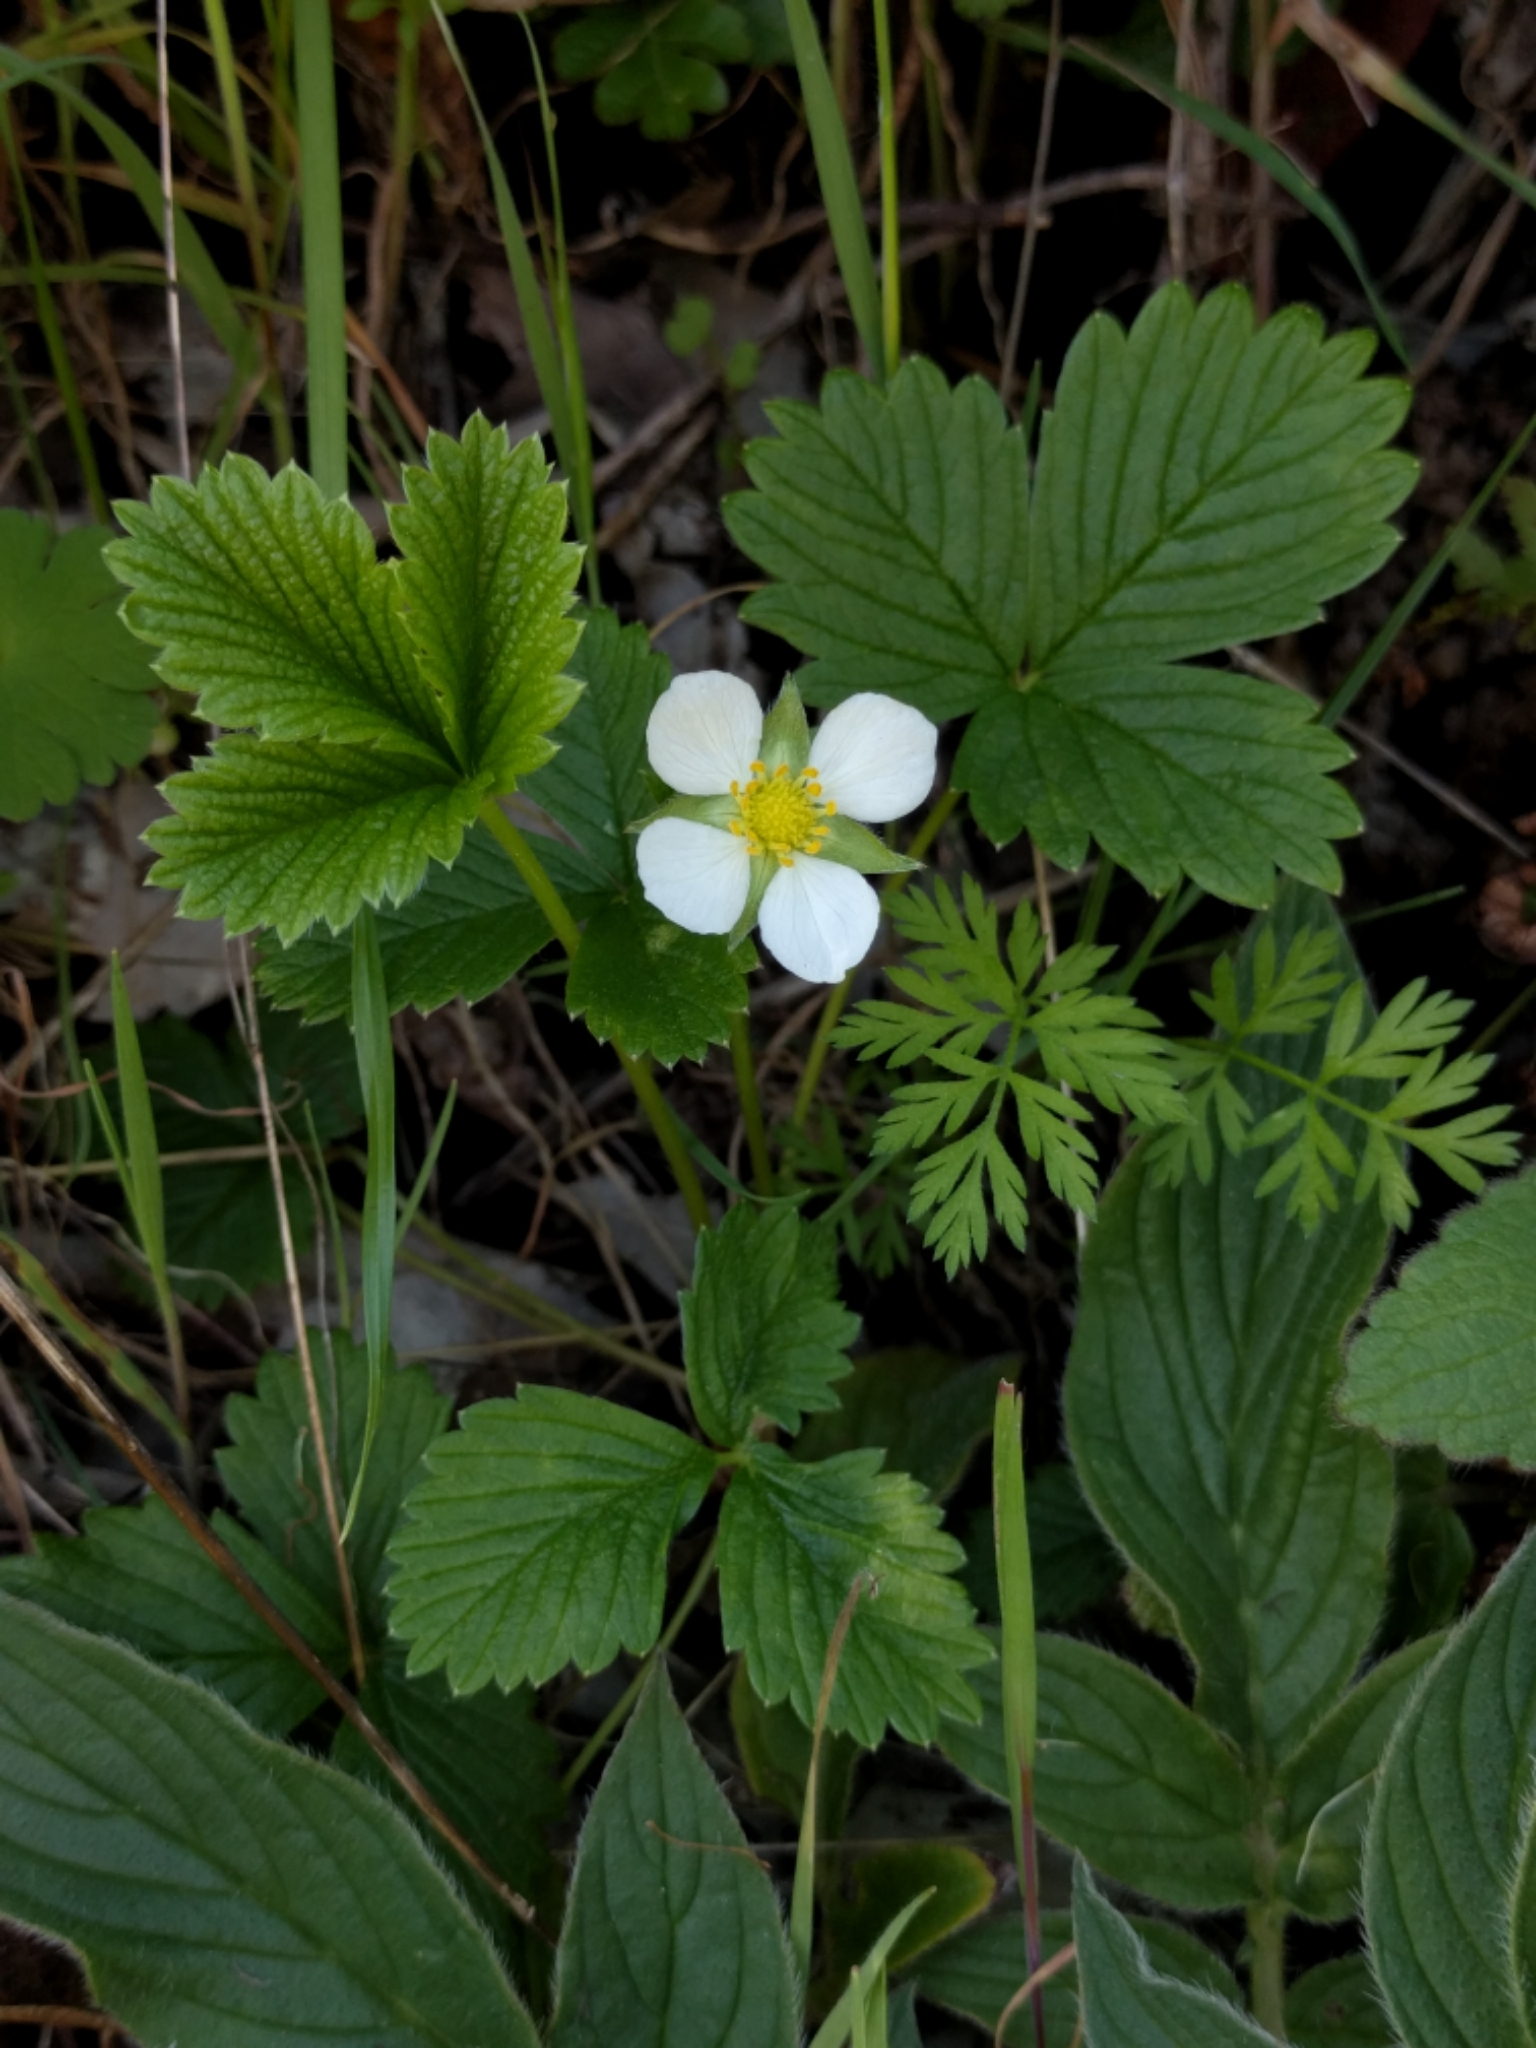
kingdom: Plantae
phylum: Tracheophyta
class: Magnoliopsida
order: Rosales
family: Rosaceae
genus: Fragaria
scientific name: Fragaria vesca
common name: Wild strawberry
